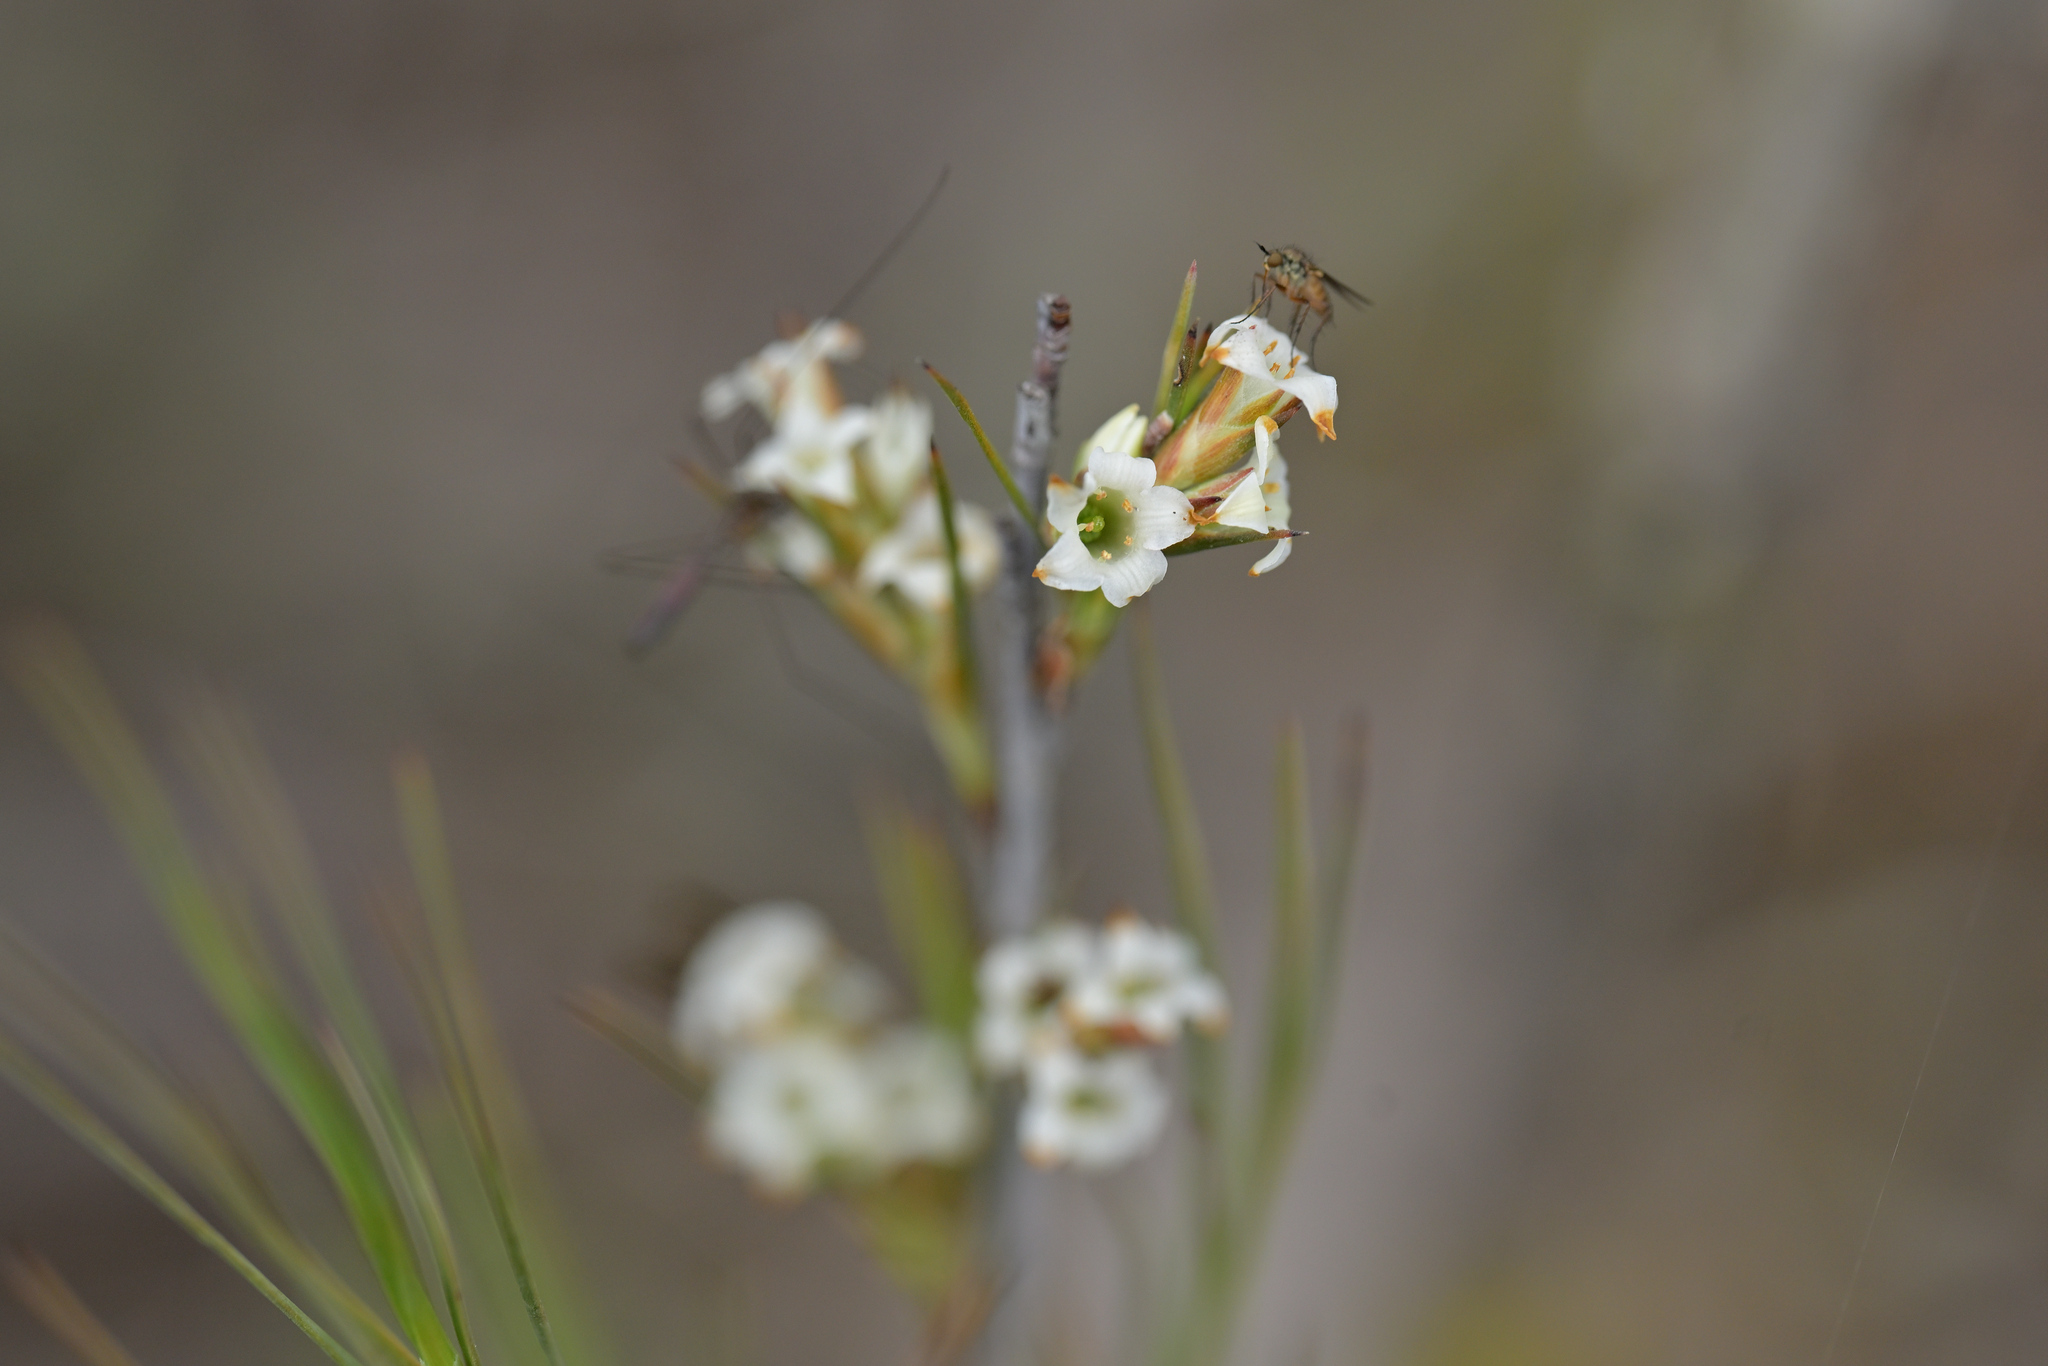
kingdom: Plantae
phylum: Tracheophyta
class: Magnoliopsida
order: Ericales
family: Ericaceae
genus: Dracophyllum
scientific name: Dracophyllum subulatum
